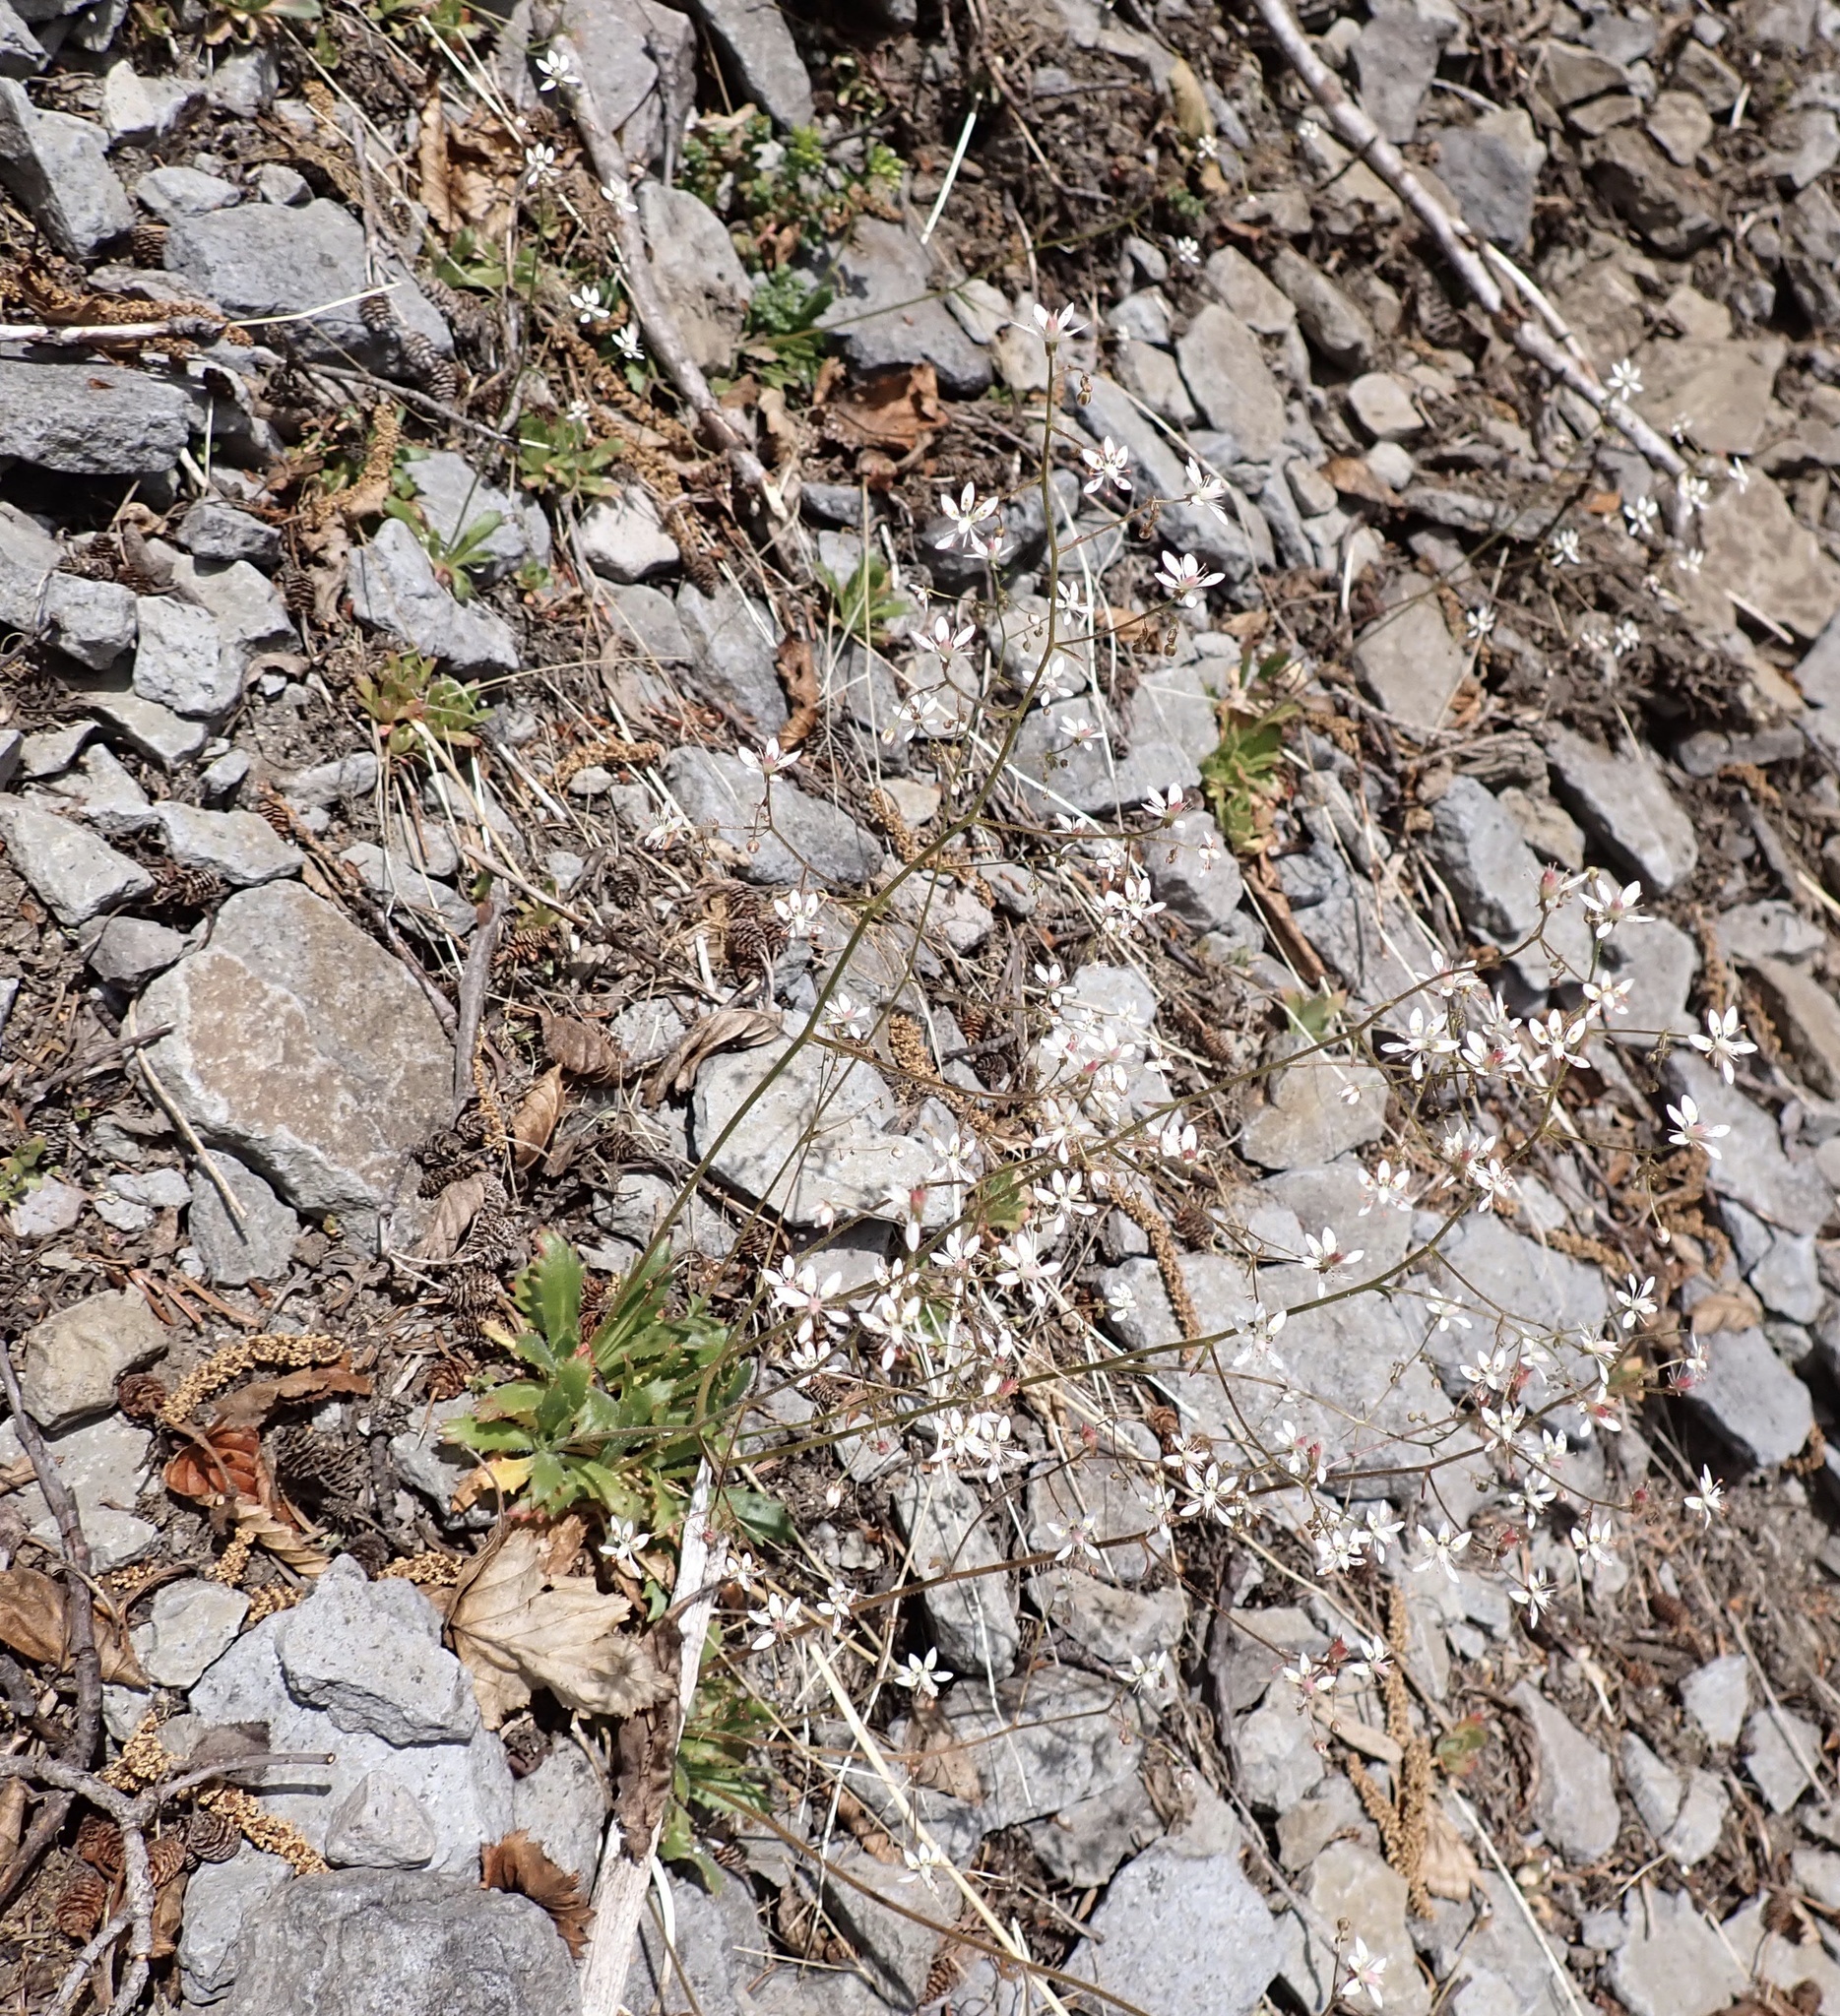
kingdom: Plantae
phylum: Tracheophyta
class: Magnoliopsida
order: Saxifragales
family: Saxifragaceae
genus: Micranthes
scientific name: Micranthes ferruginea
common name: Rusty saxifrage
